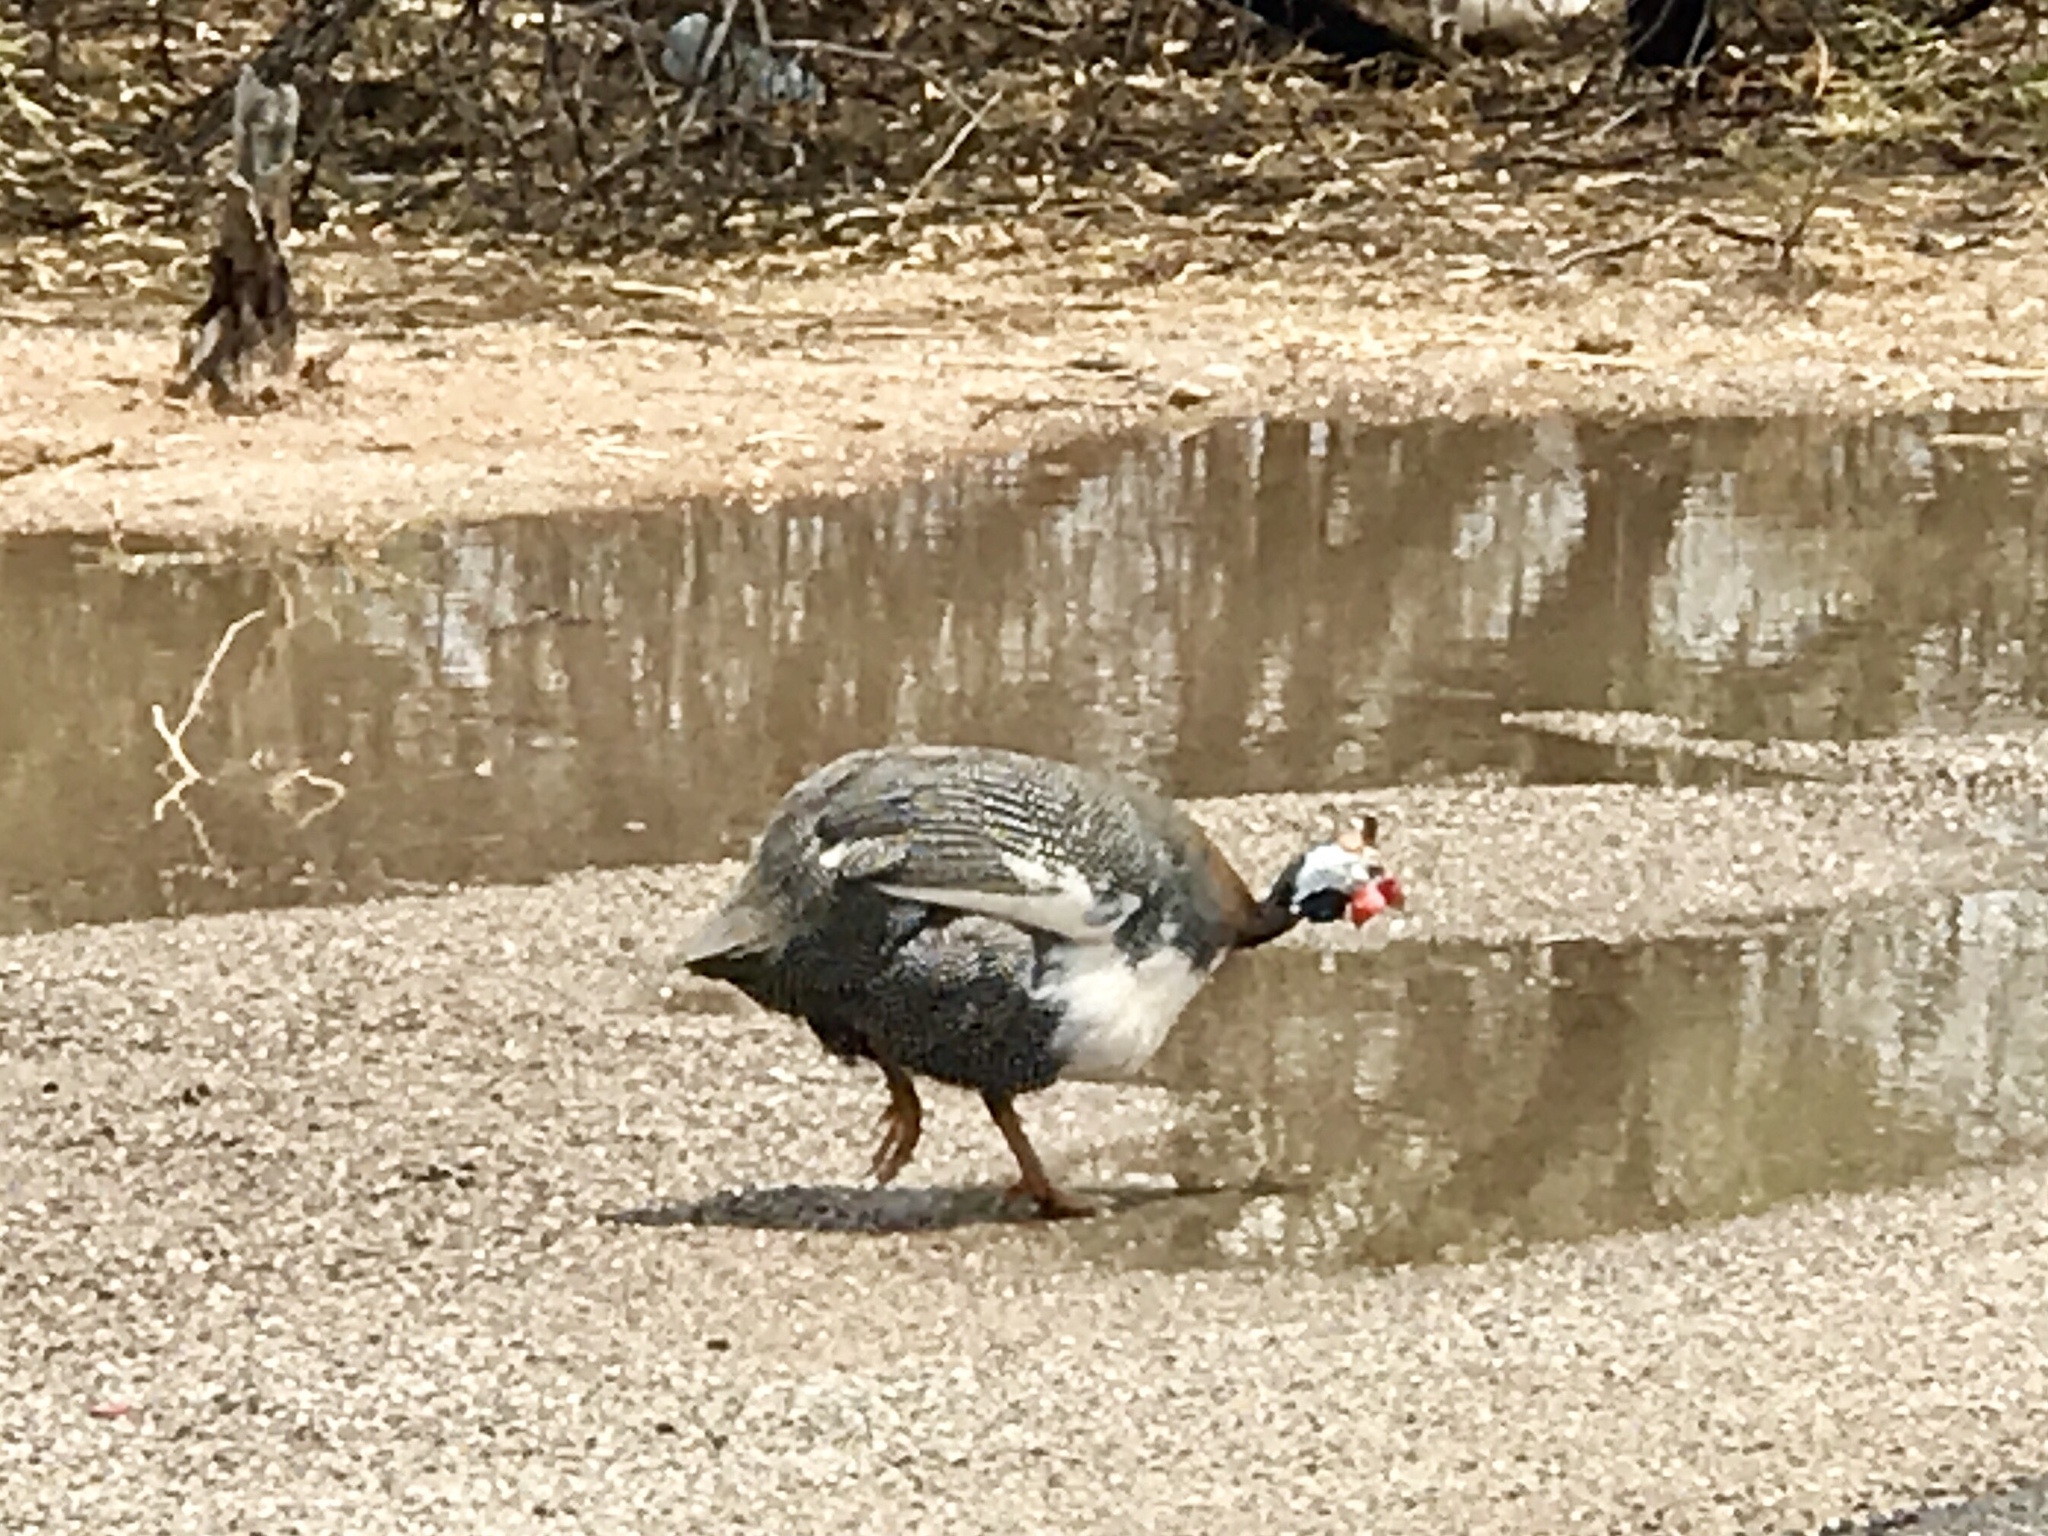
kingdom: Animalia
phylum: Chordata
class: Aves
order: Galliformes
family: Numididae
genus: Numida
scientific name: Numida meleagris
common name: Helmeted guineafowl
